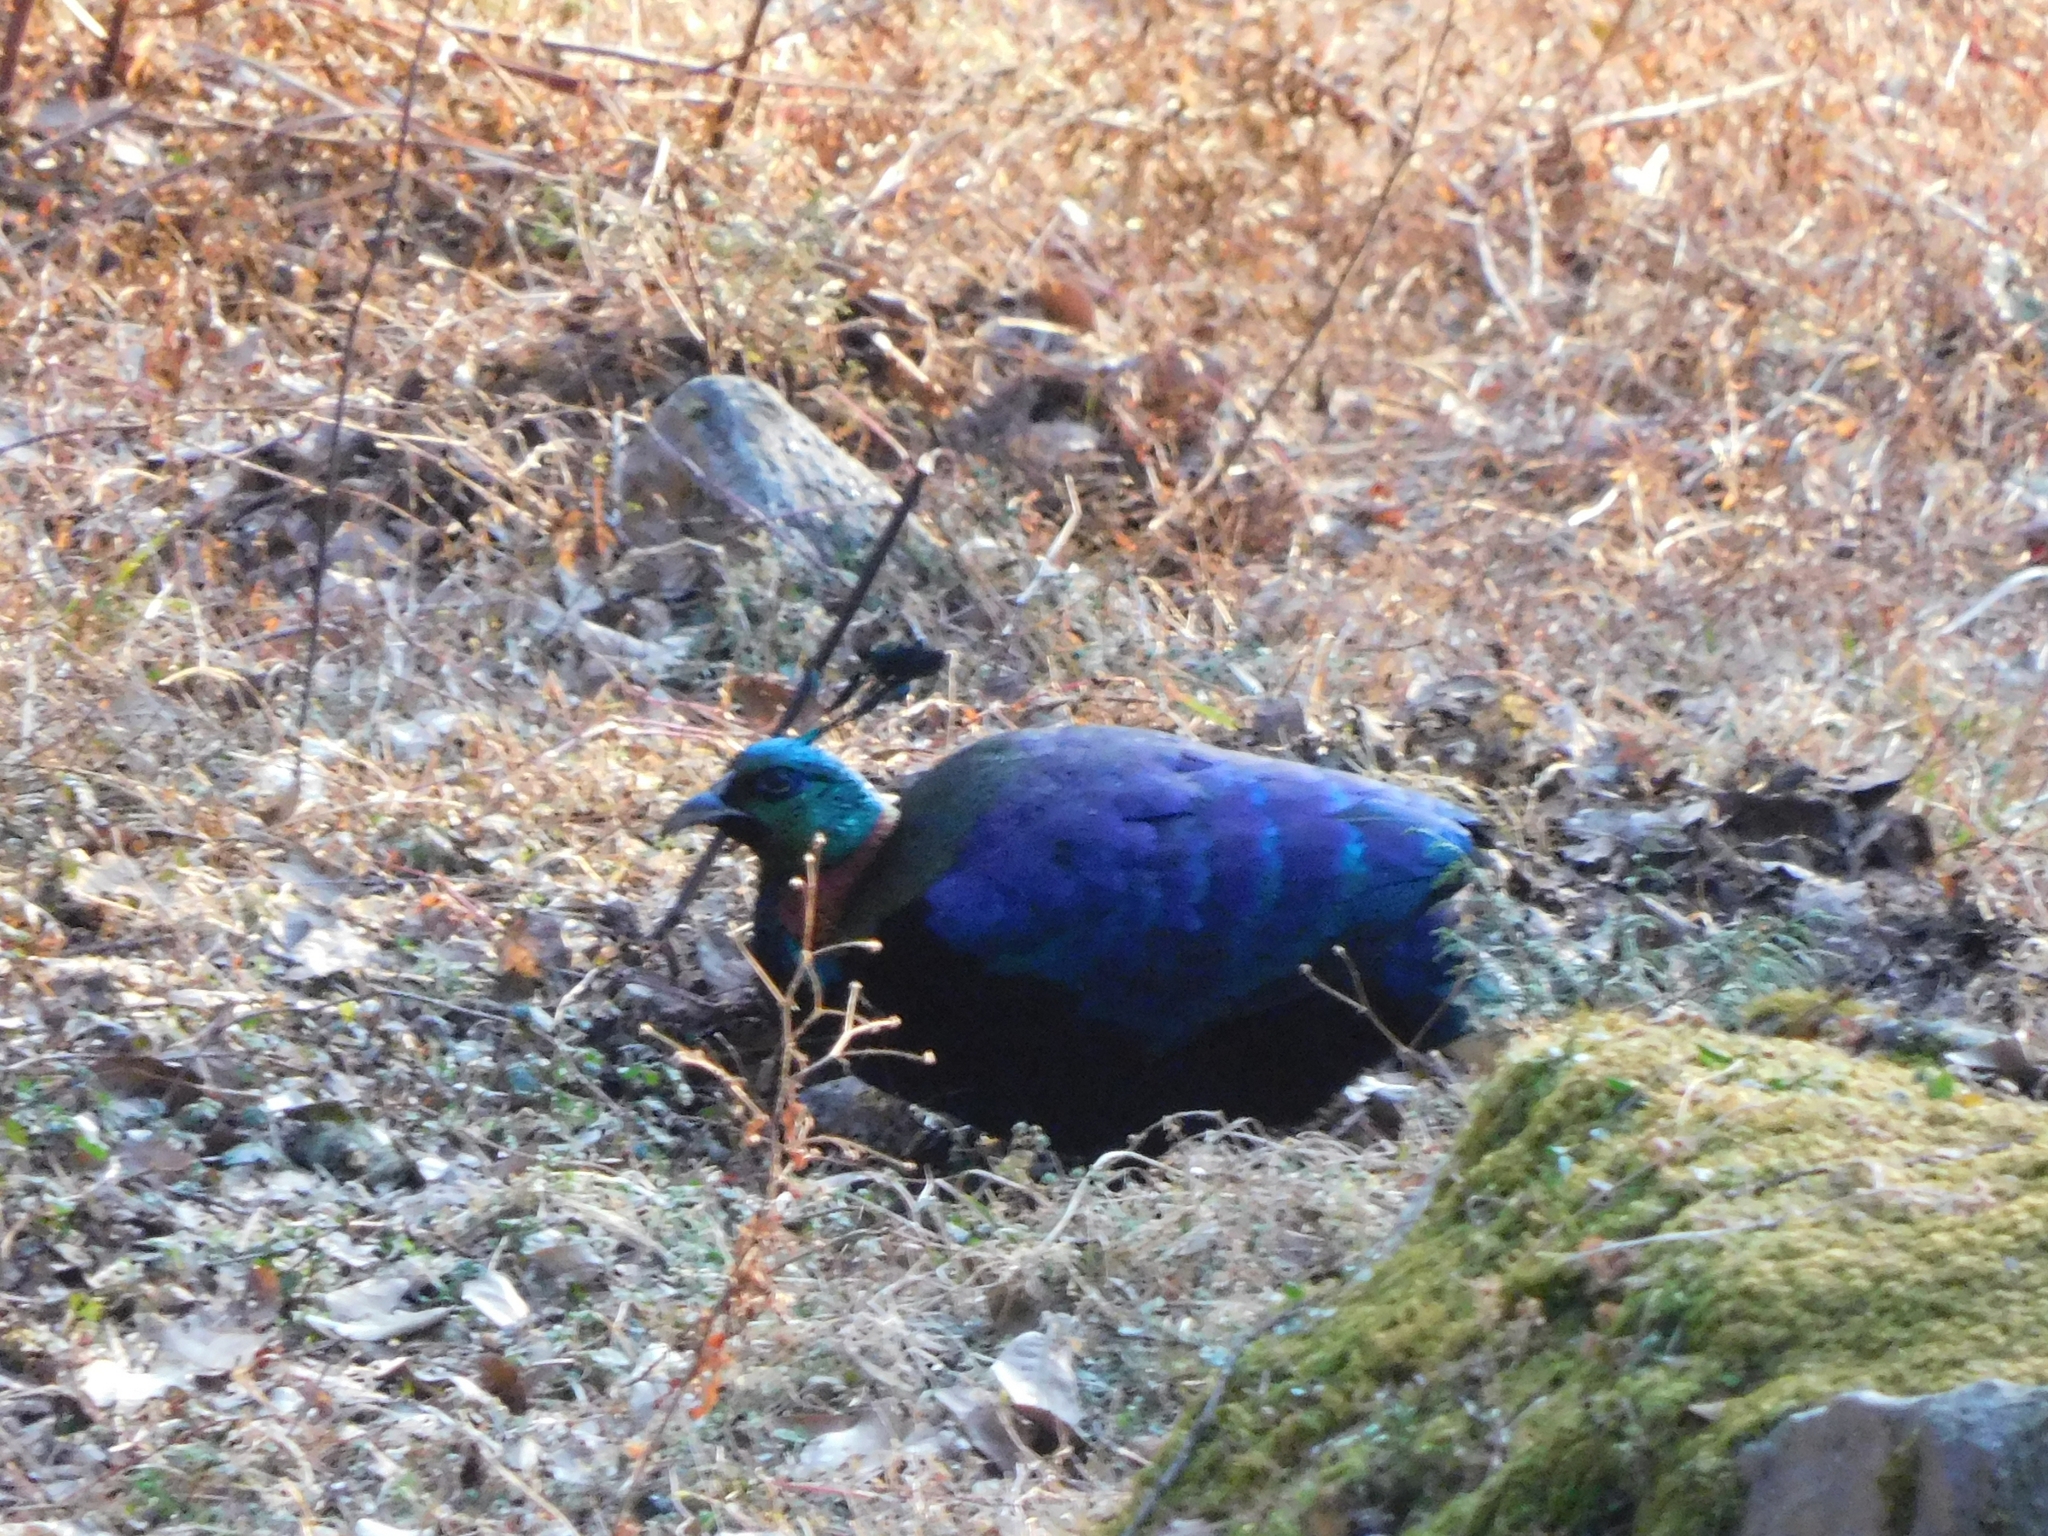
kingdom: Animalia
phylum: Chordata
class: Aves
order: Galliformes
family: Phasianidae
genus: Lophophorus
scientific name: Lophophorus impejanus
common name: Himalayan monal
